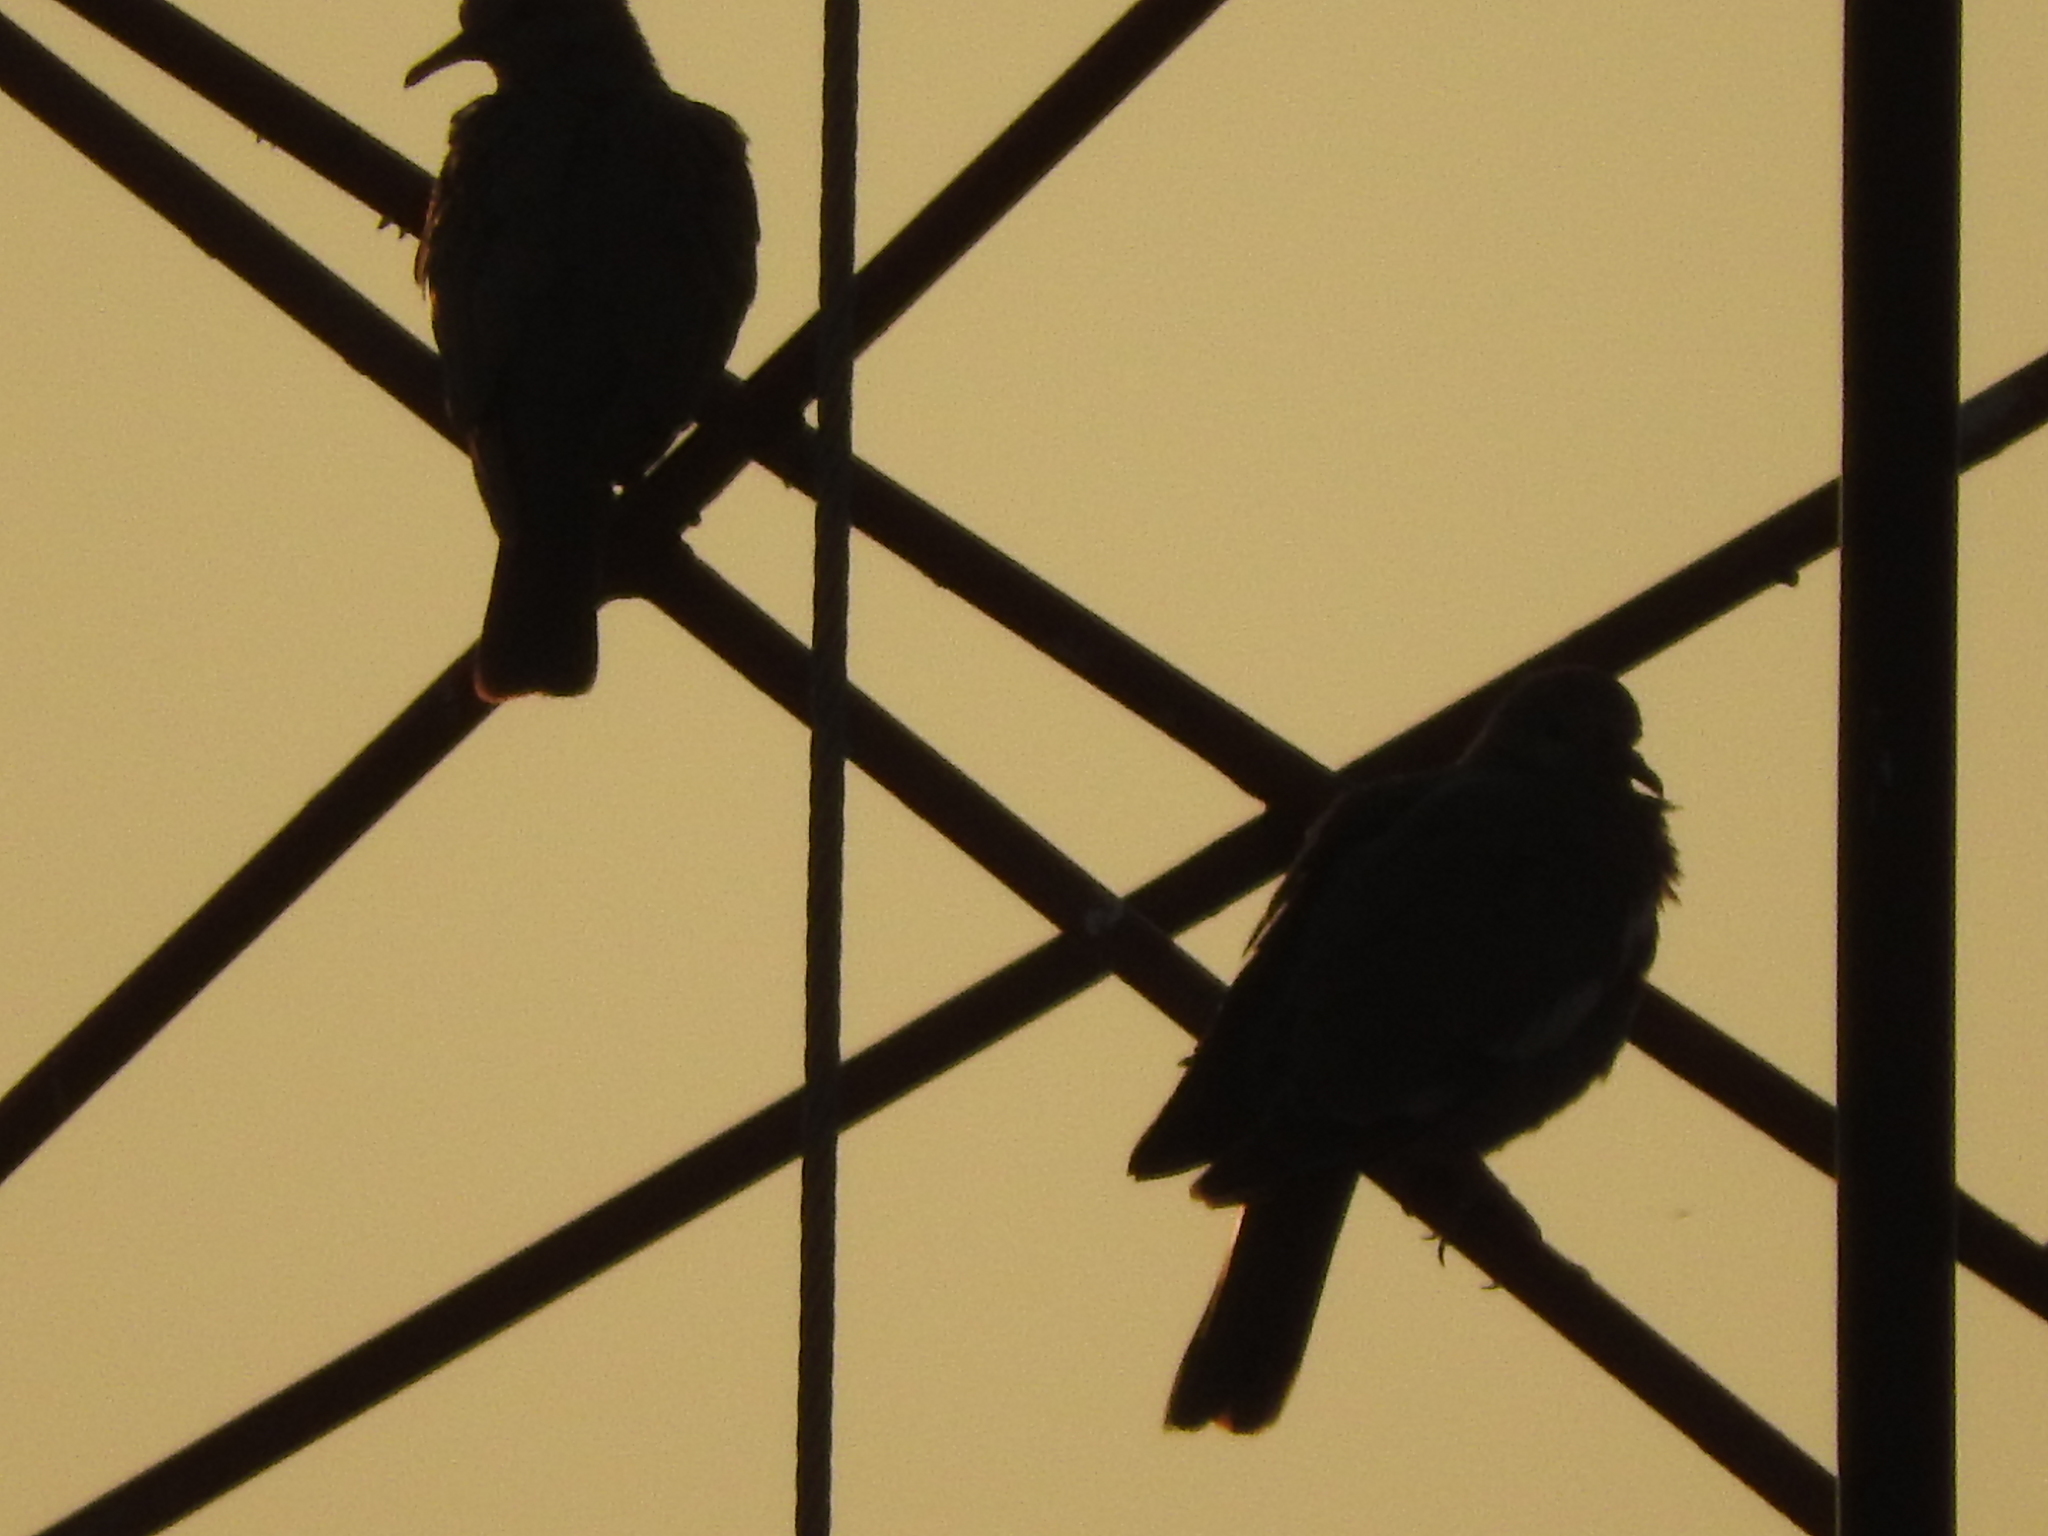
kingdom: Animalia
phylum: Chordata
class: Aves
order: Columbiformes
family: Columbidae
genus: Zenaida
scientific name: Zenaida asiatica
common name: White-winged dove
